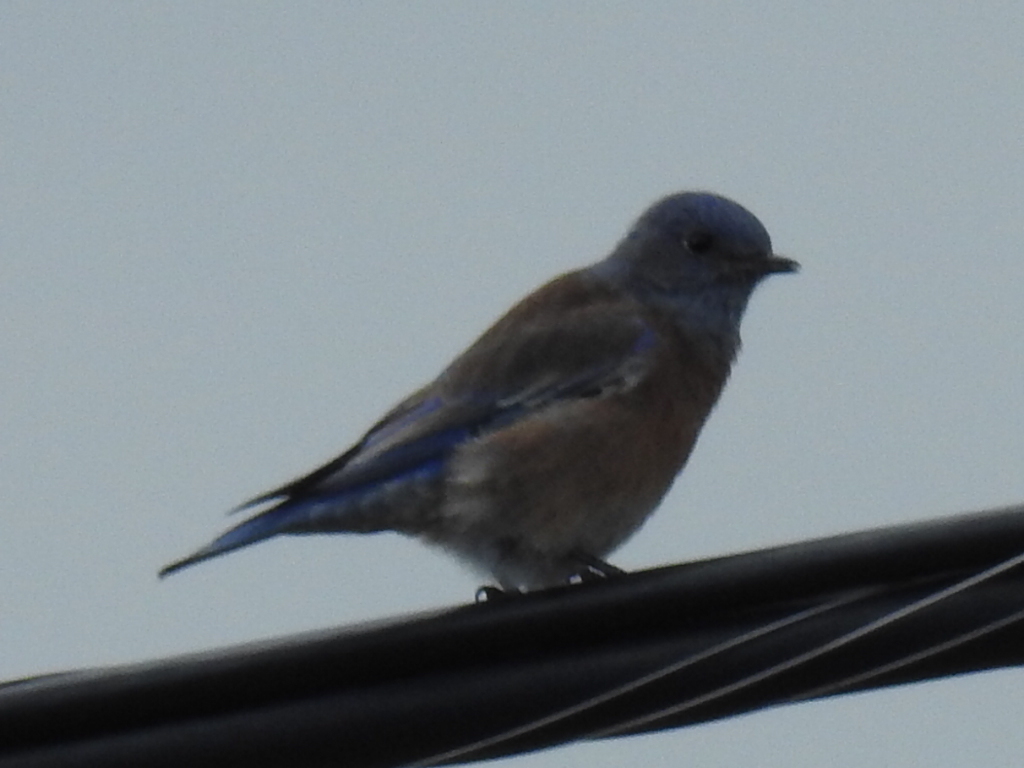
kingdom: Animalia
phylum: Chordata
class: Aves
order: Passeriformes
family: Turdidae
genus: Sialia
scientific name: Sialia mexicana
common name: Western bluebird
